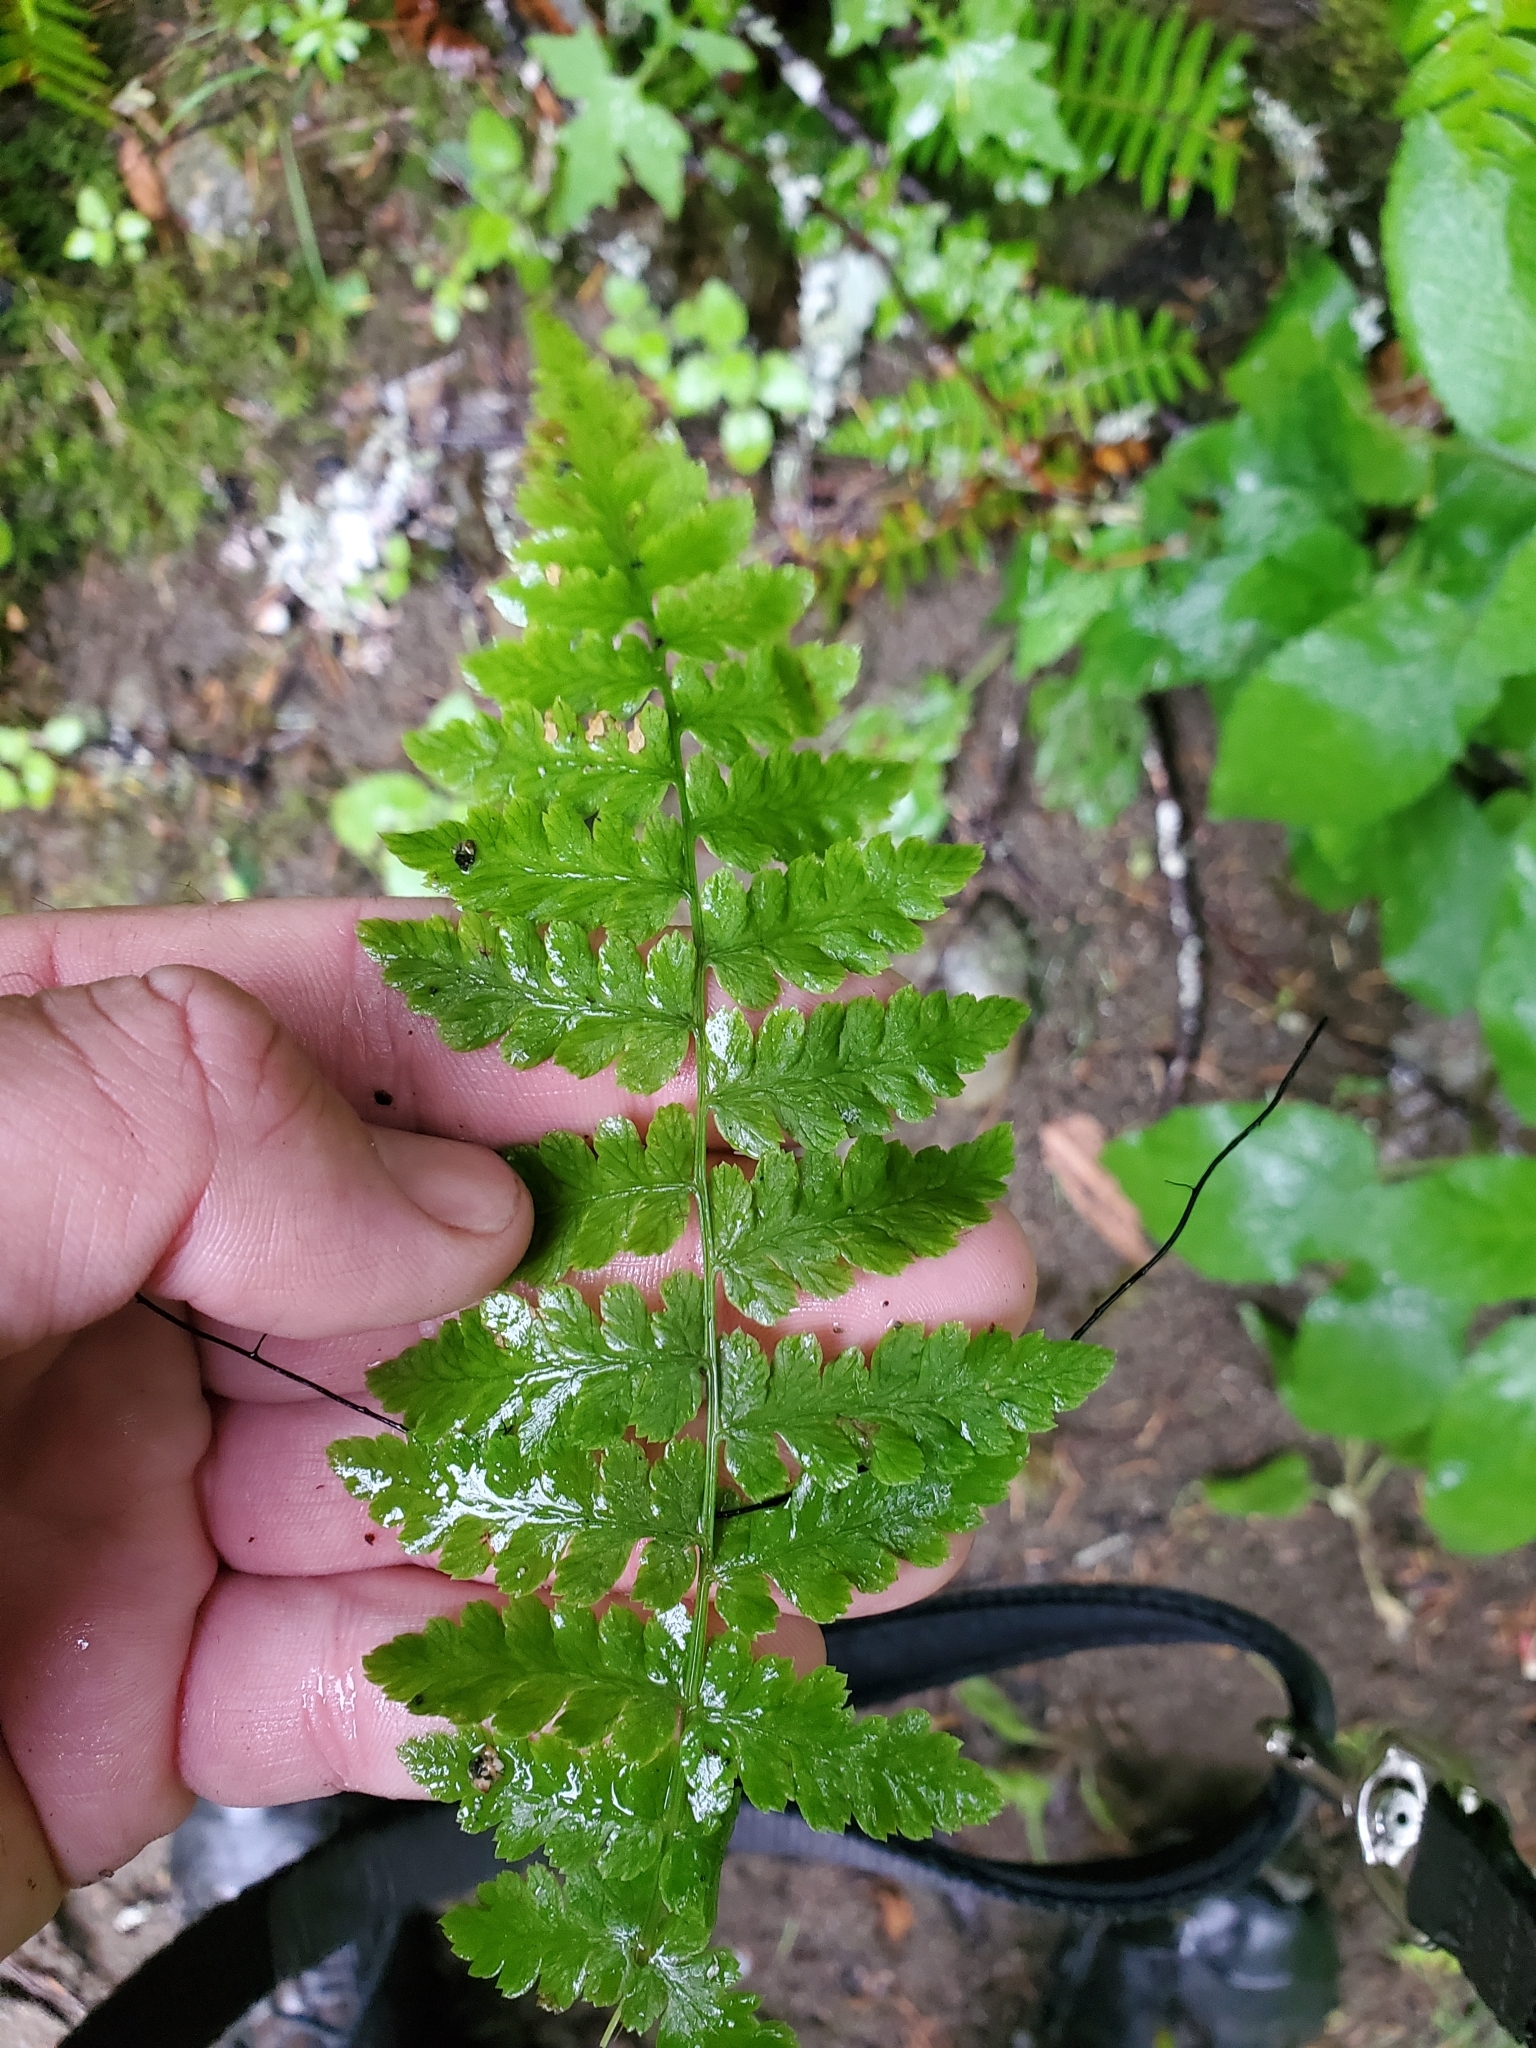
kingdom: Plantae
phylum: Tracheophyta
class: Polypodiopsida
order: Polypodiales
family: Athyriaceae
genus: Athyrium
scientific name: Athyrium filix-femina
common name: Lady fern
